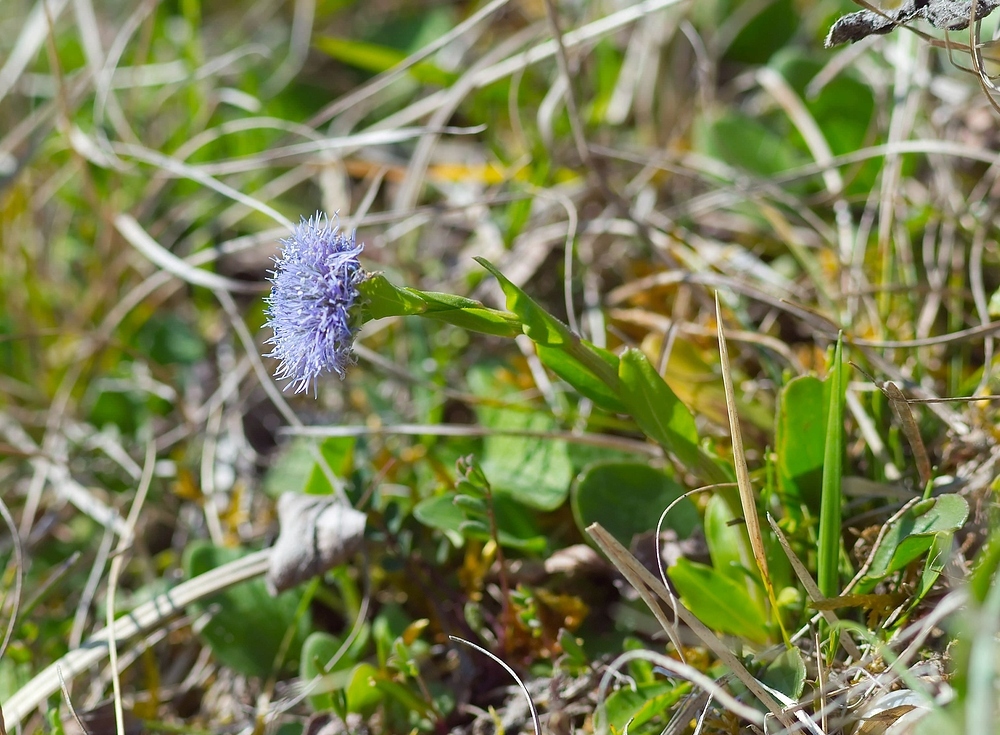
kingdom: Plantae
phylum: Tracheophyta
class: Magnoliopsida
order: Lamiales
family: Plantaginaceae
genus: Globularia
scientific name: Globularia bisnagarica
